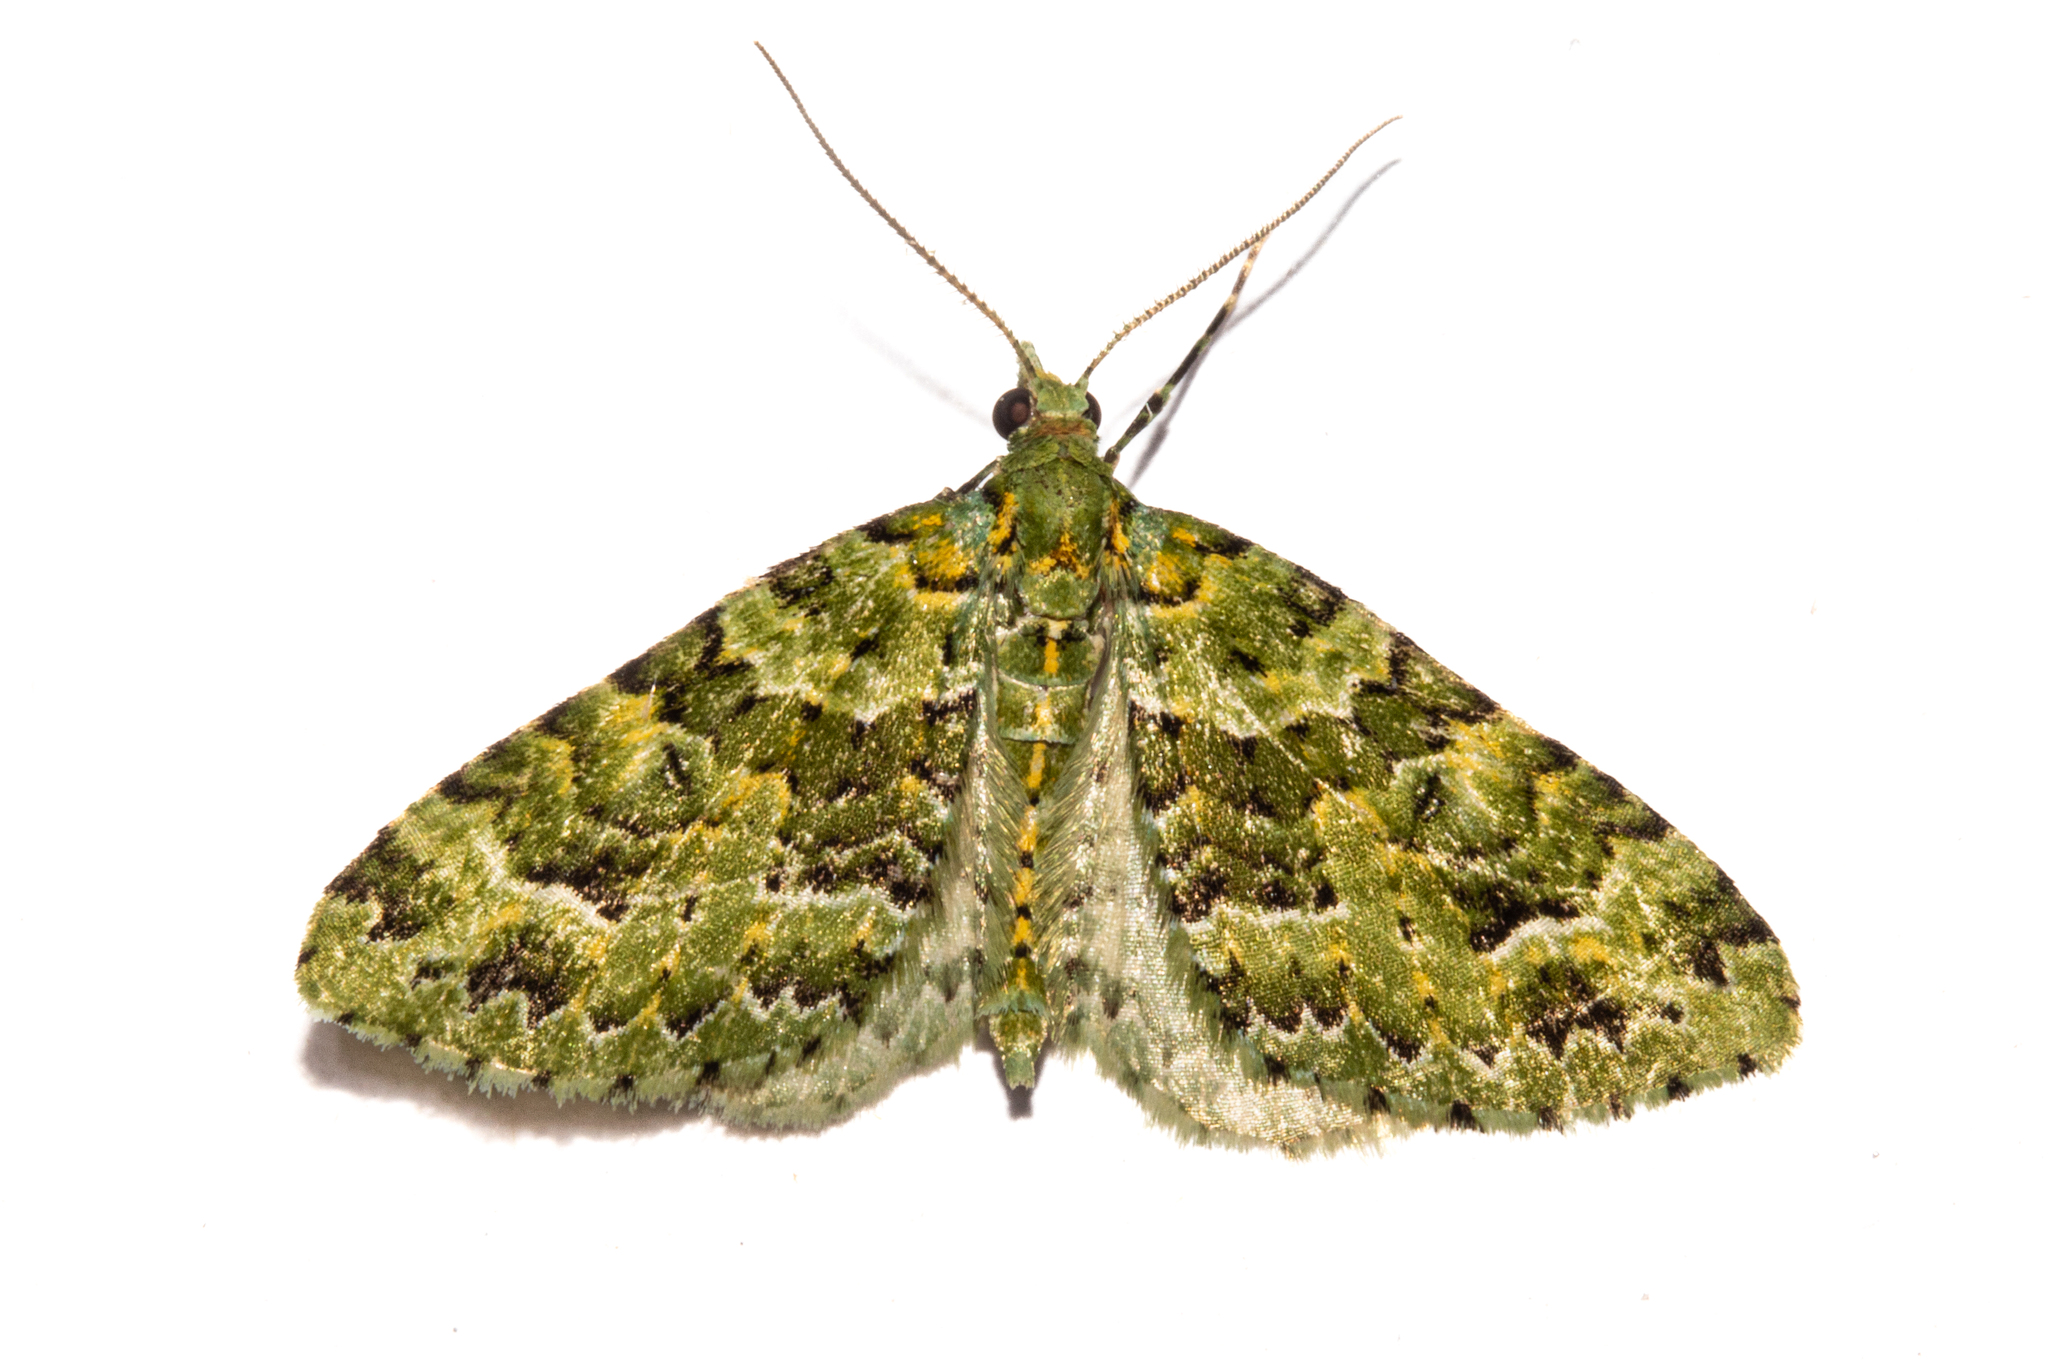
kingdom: Animalia
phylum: Arthropoda
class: Insecta
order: Lepidoptera
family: Geometridae
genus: Pasiphila
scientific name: Pasiphila melochlora
